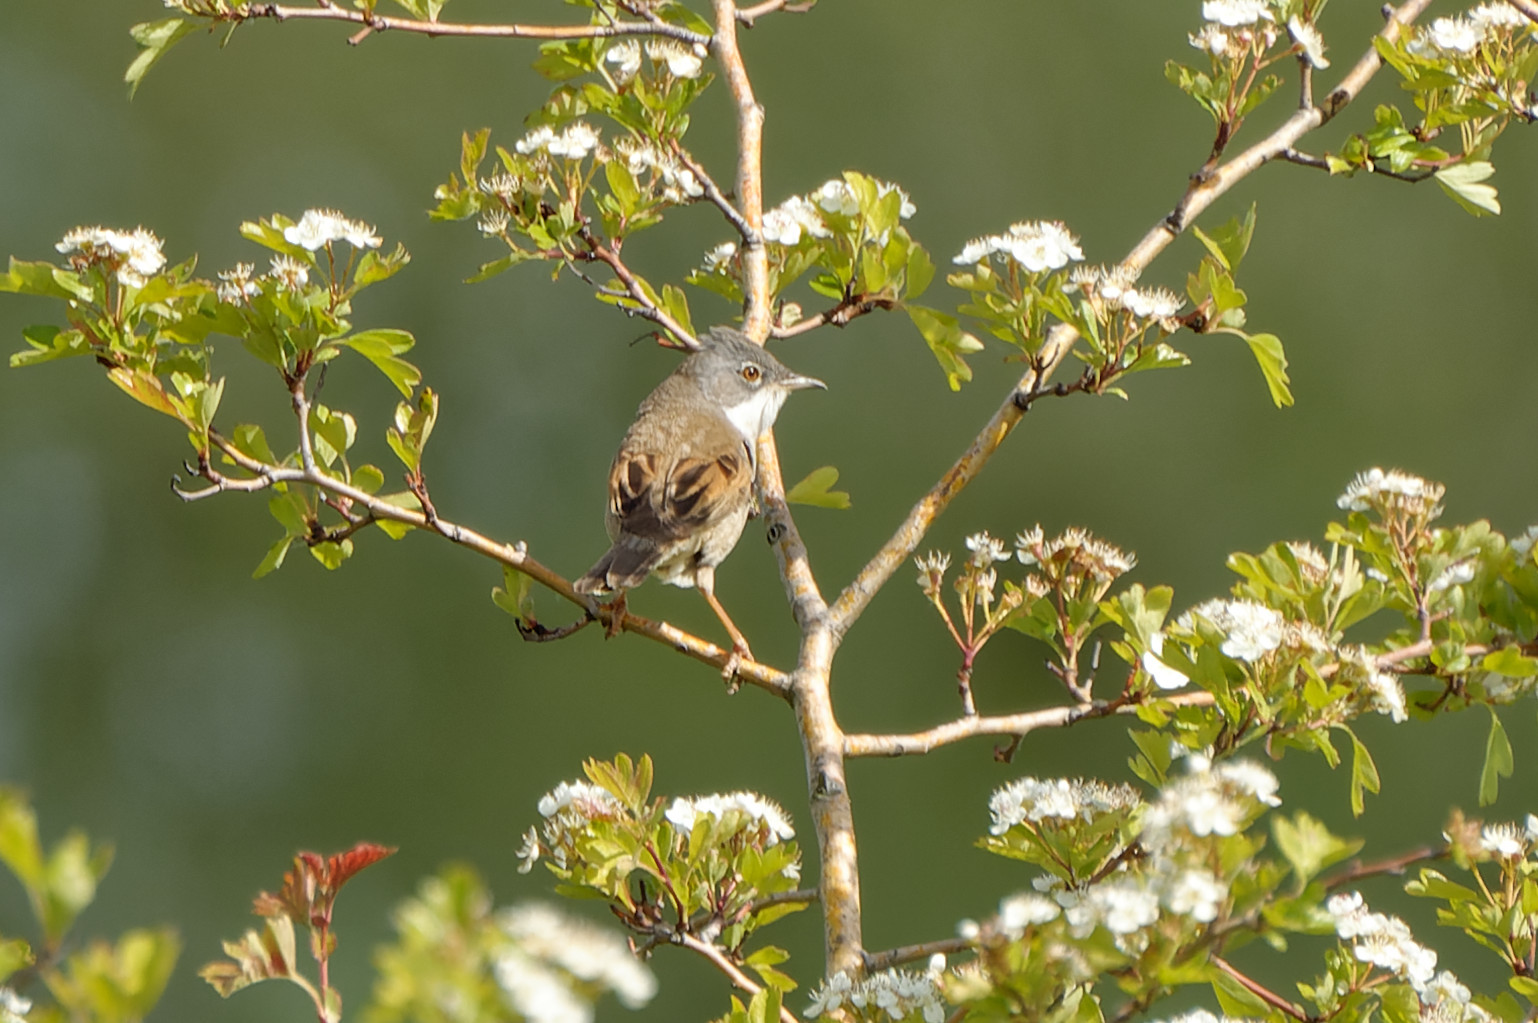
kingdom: Animalia
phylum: Chordata
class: Aves
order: Passeriformes
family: Sylviidae
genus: Sylvia
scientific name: Sylvia communis
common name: Common whitethroat
